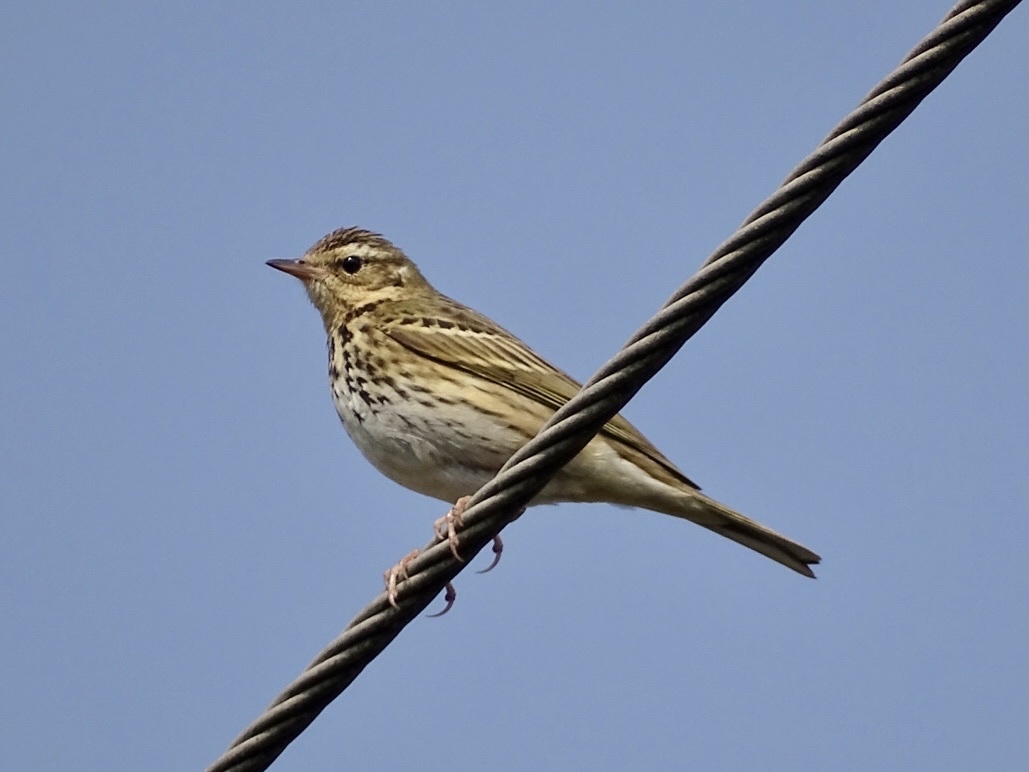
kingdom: Animalia
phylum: Chordata
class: Aves
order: Passeriformes
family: Motacillidae
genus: Anthus
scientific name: Anthus hodgsoni
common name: Olive-backed pipit
